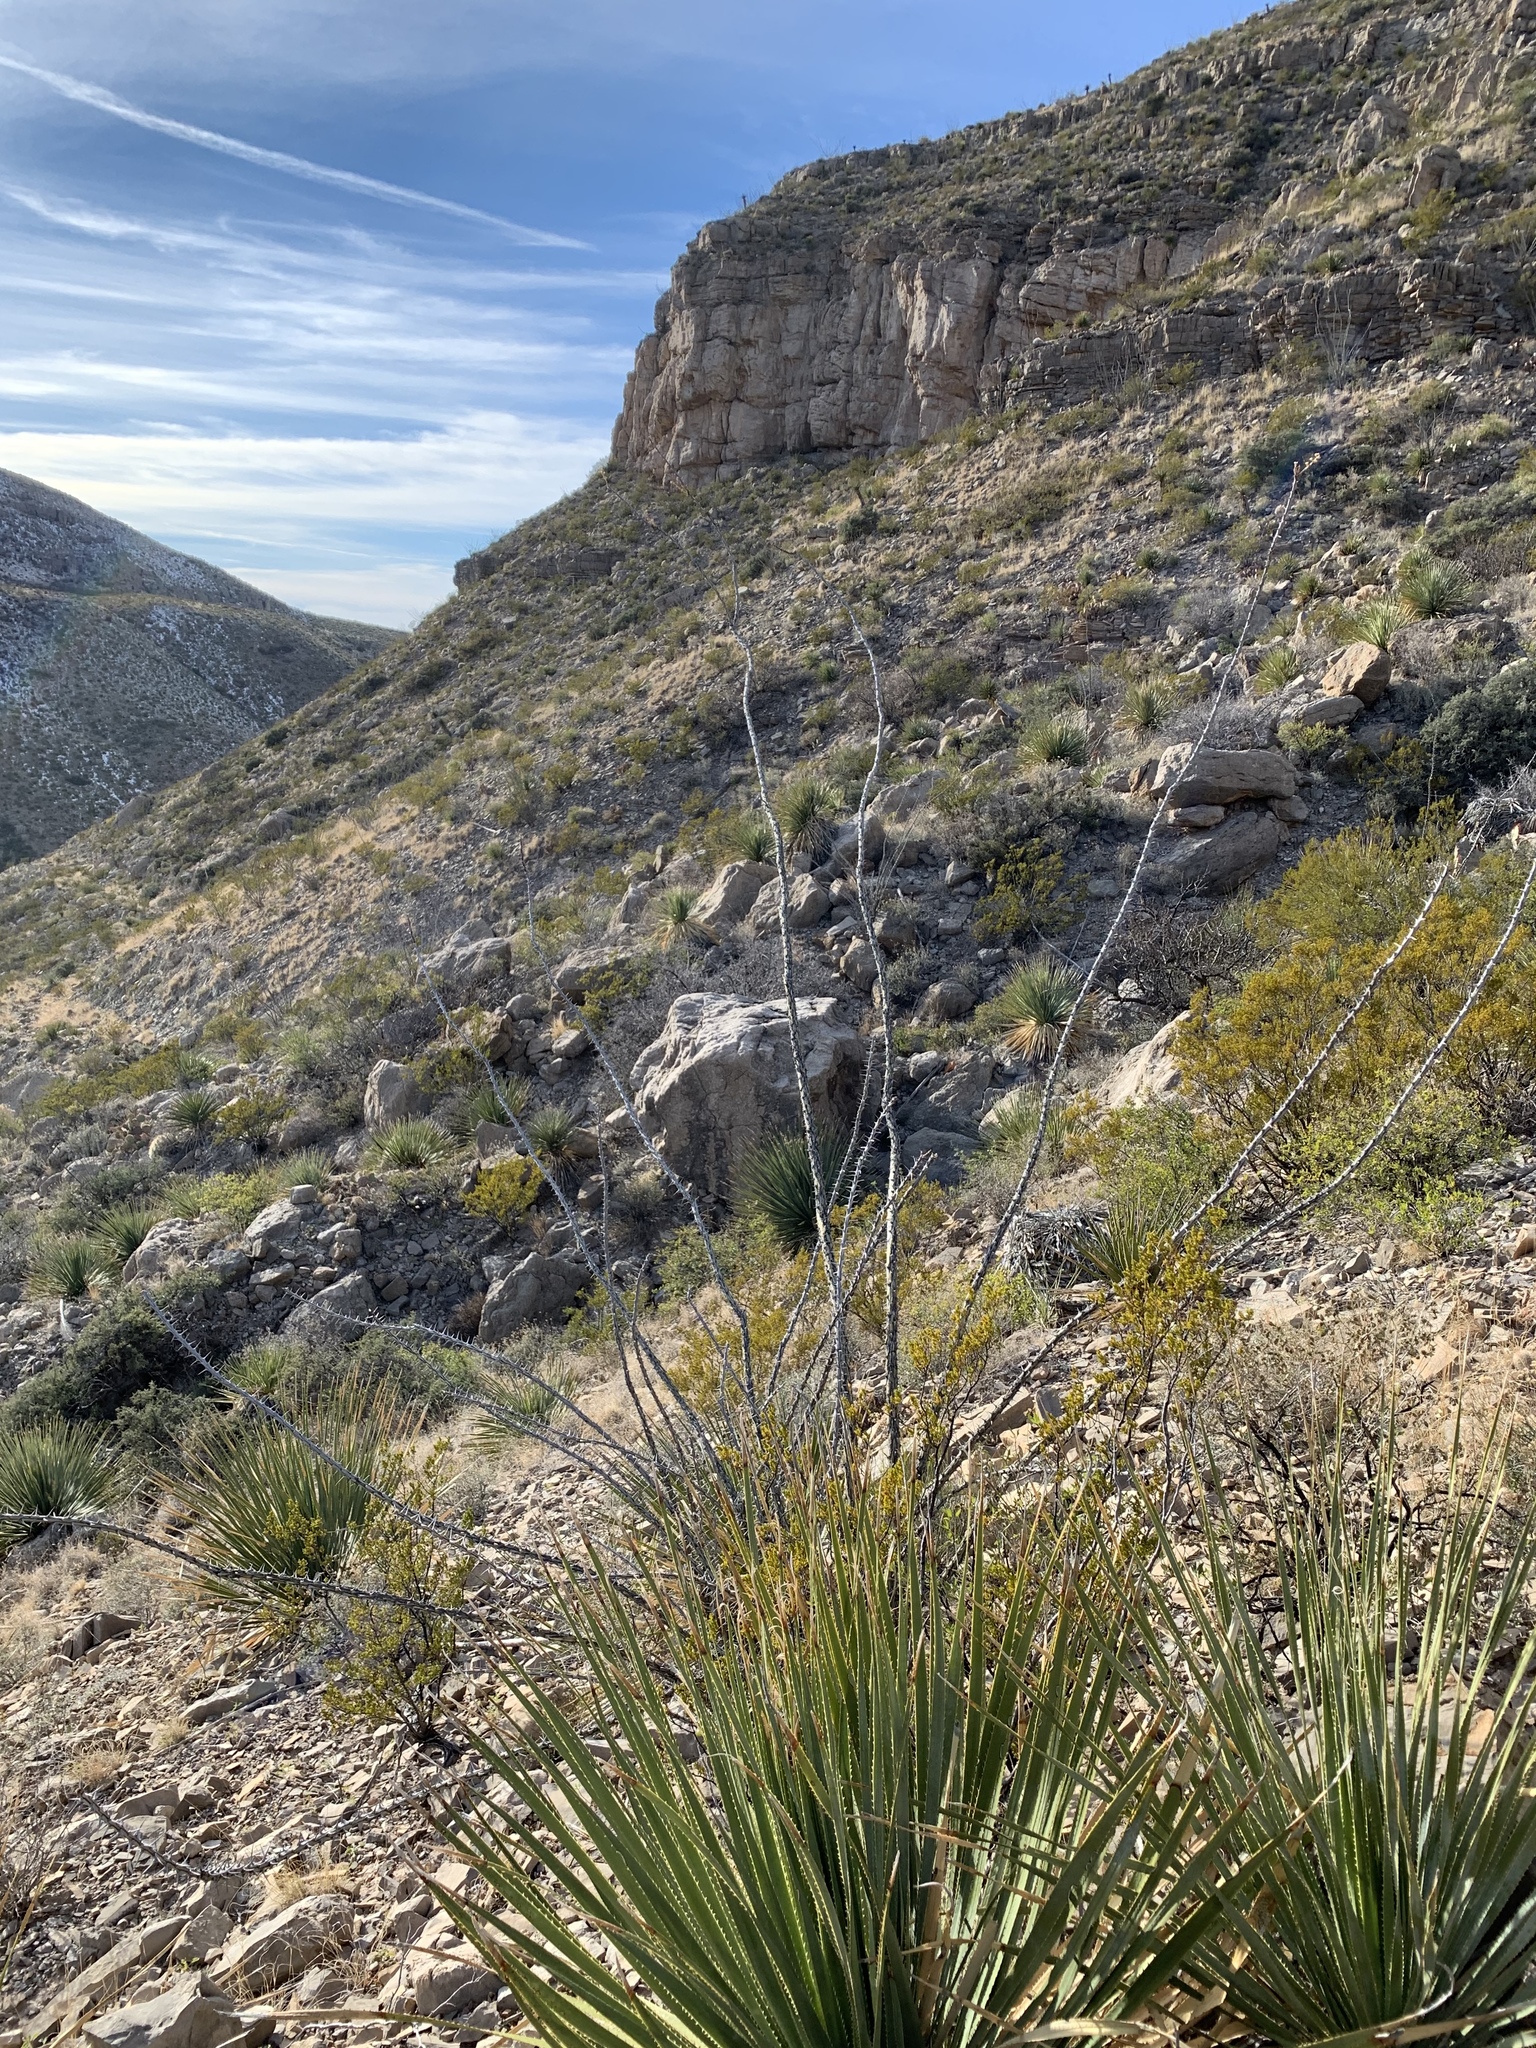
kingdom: Plantae
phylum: Tracheophyta
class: Magnoliopsida
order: Ericales
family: Fouquieriaceae
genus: Fouquieria
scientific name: Fouquieria splendens
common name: Vine-cactus
